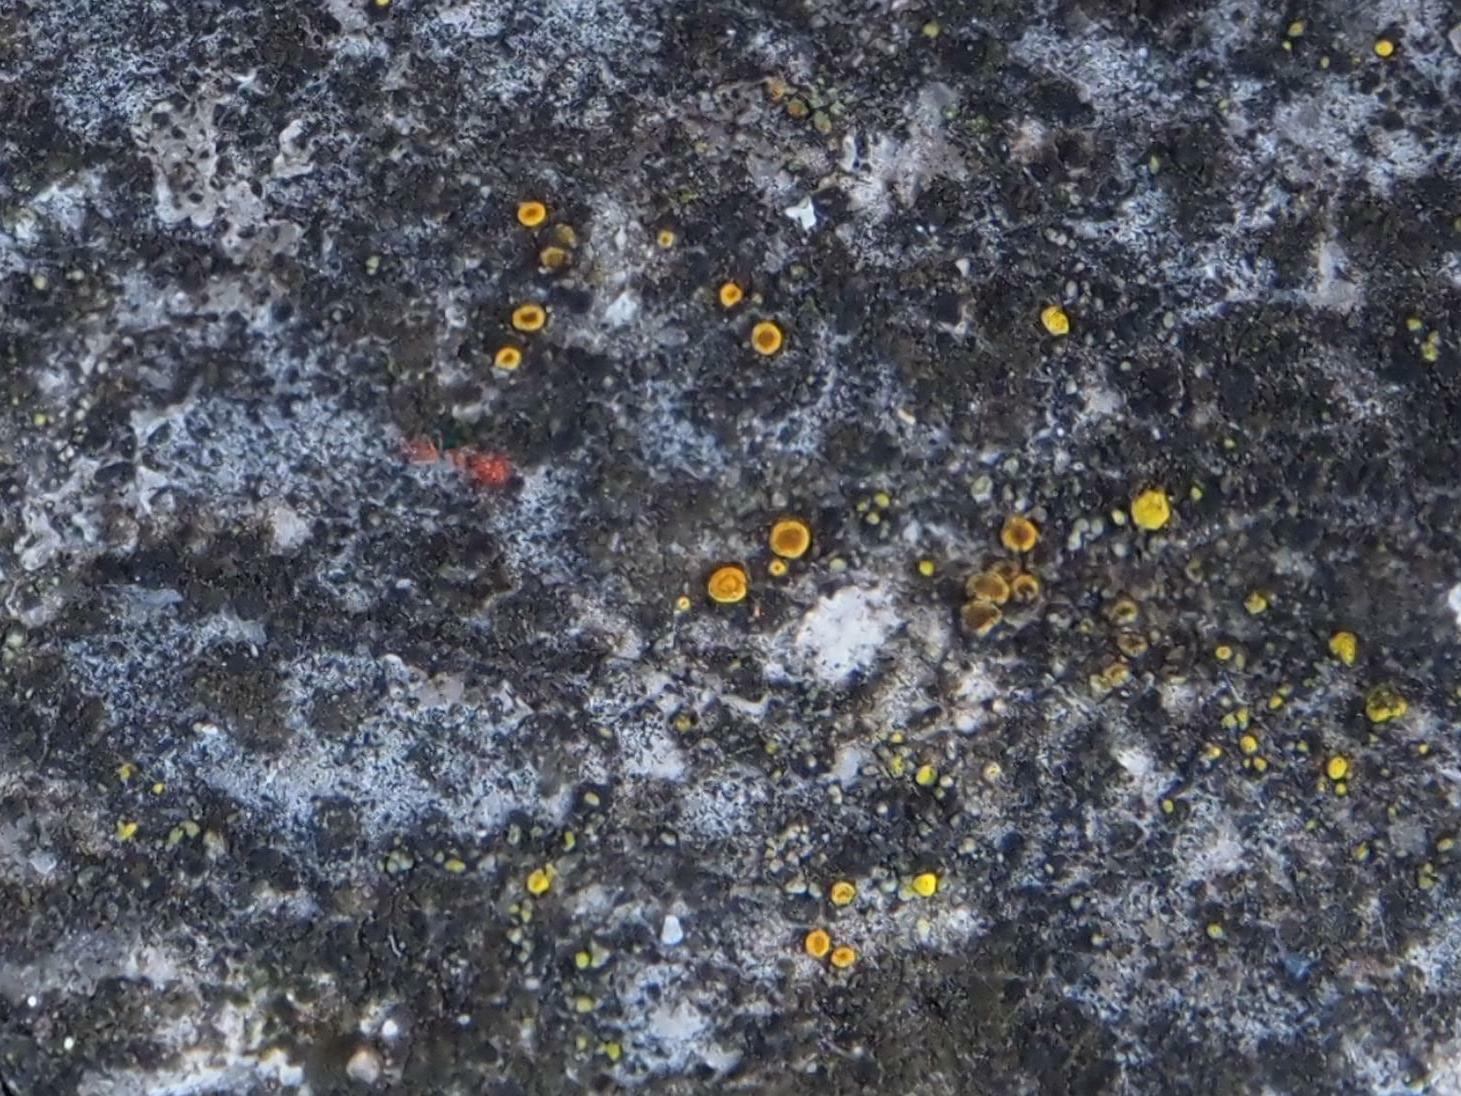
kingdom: Fungi
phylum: Ascomycota
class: Candelariomycetes
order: Candelariales
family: Candelariaceae
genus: Candelariella
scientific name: Candelariella aurella
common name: Hidden goldspeck lichen
